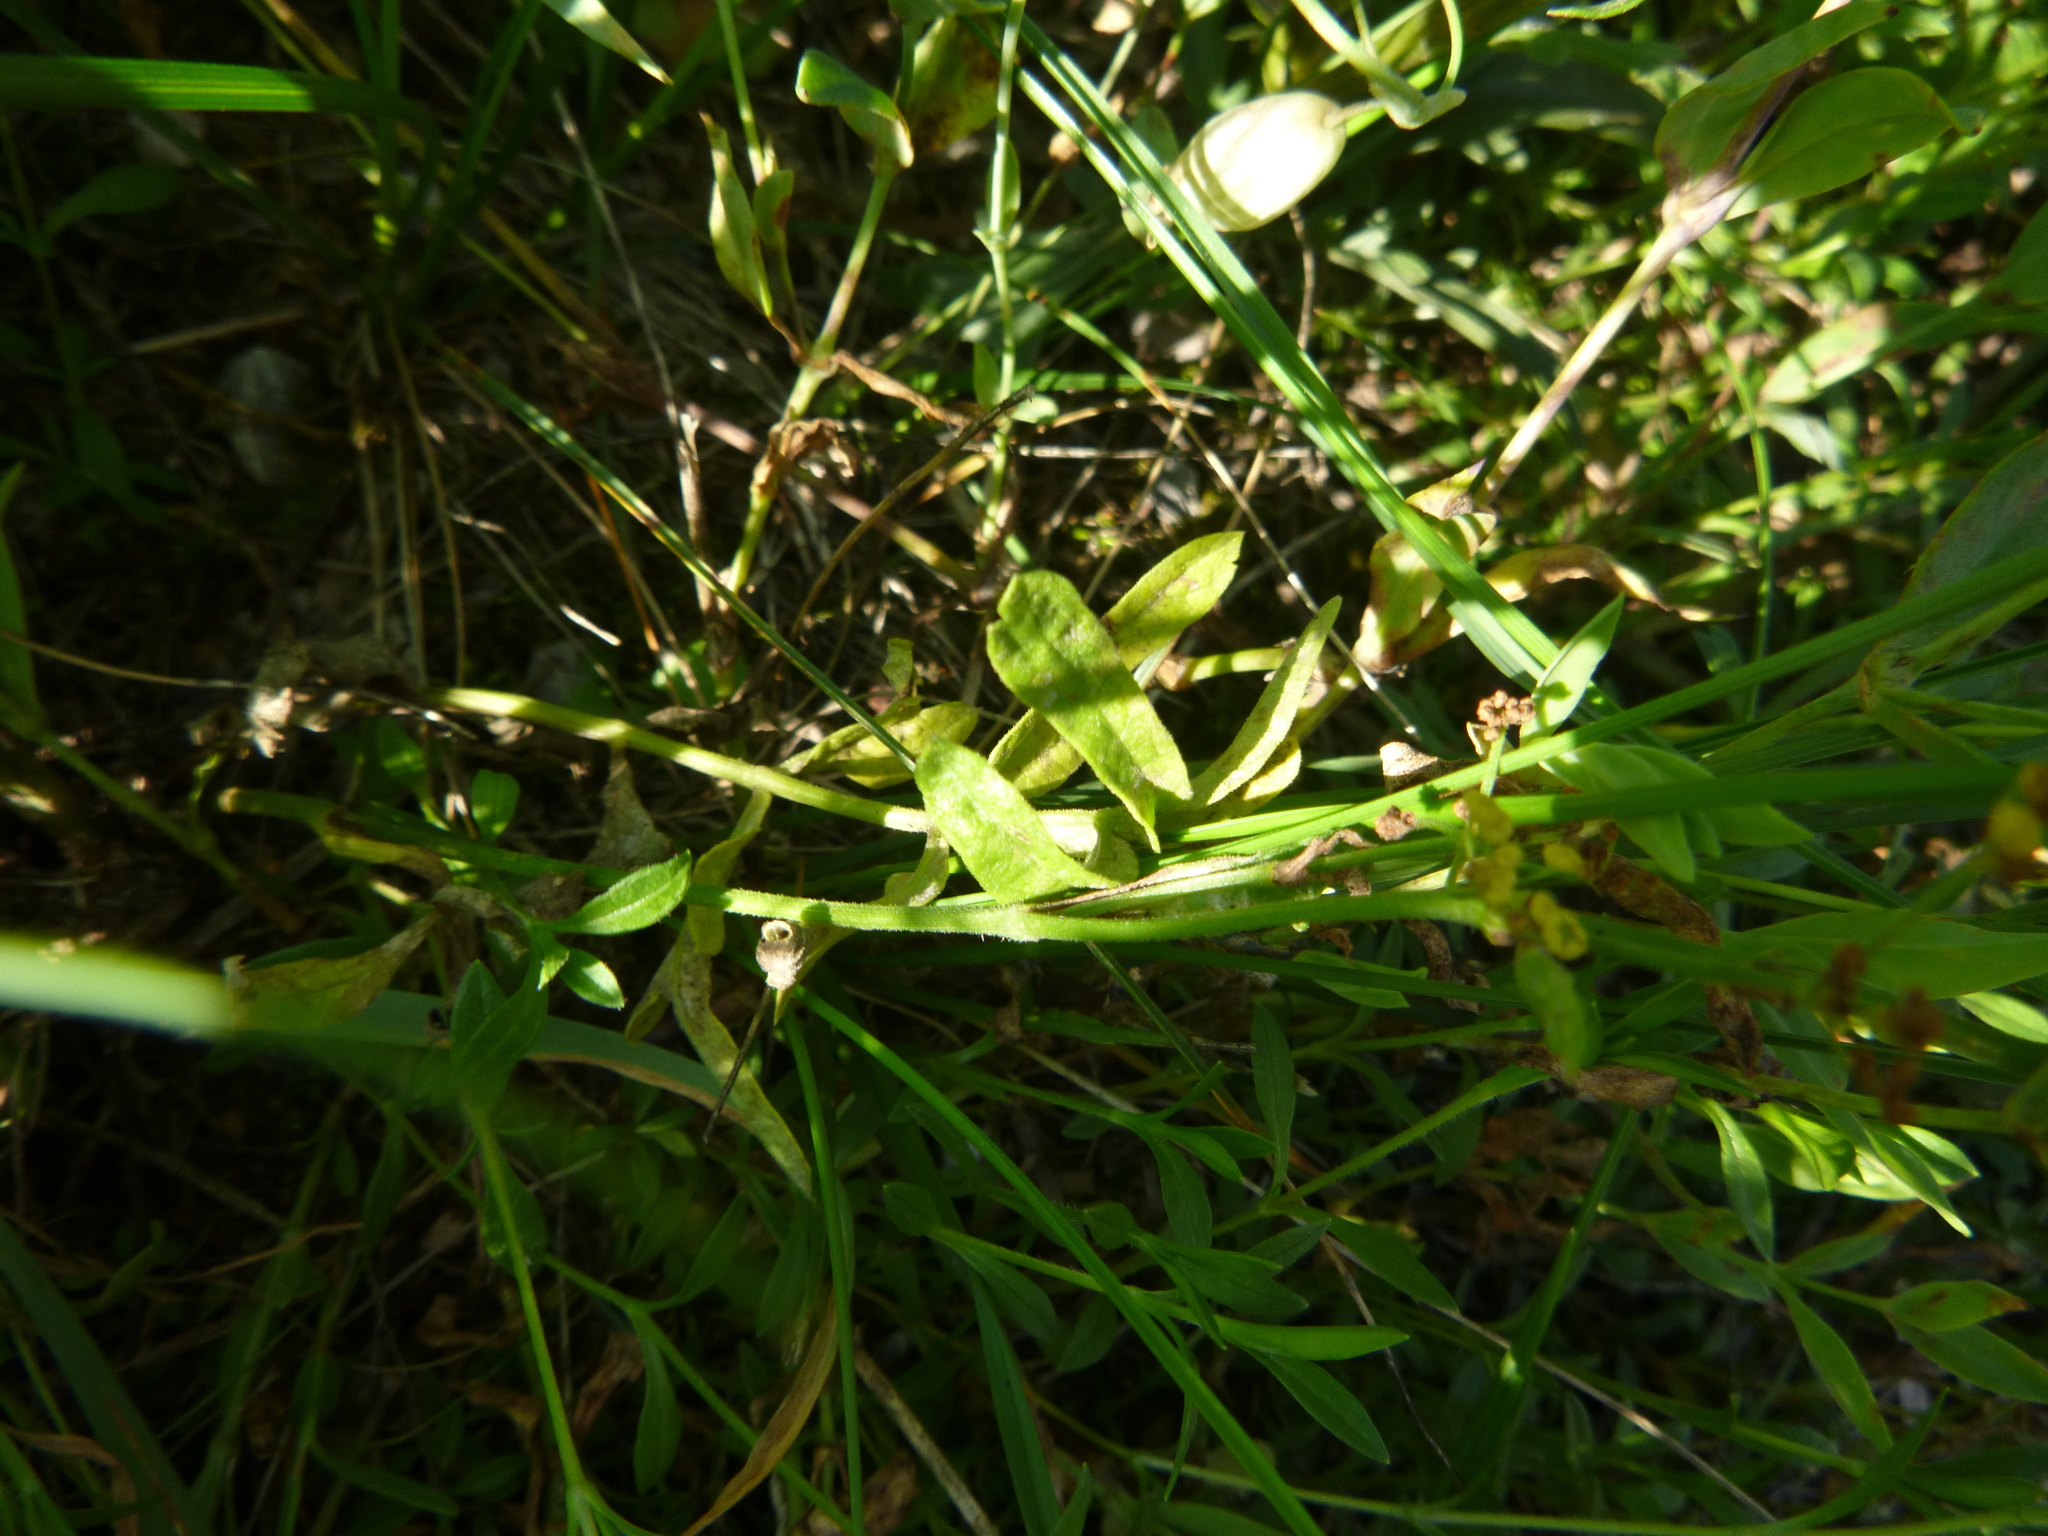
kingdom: Plantae
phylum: Tracheophyta
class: Magnoliopsida
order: Apiales
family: Apiaceae
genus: Pastinaca
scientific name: Pastinaca sativa
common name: Wild parsnip
